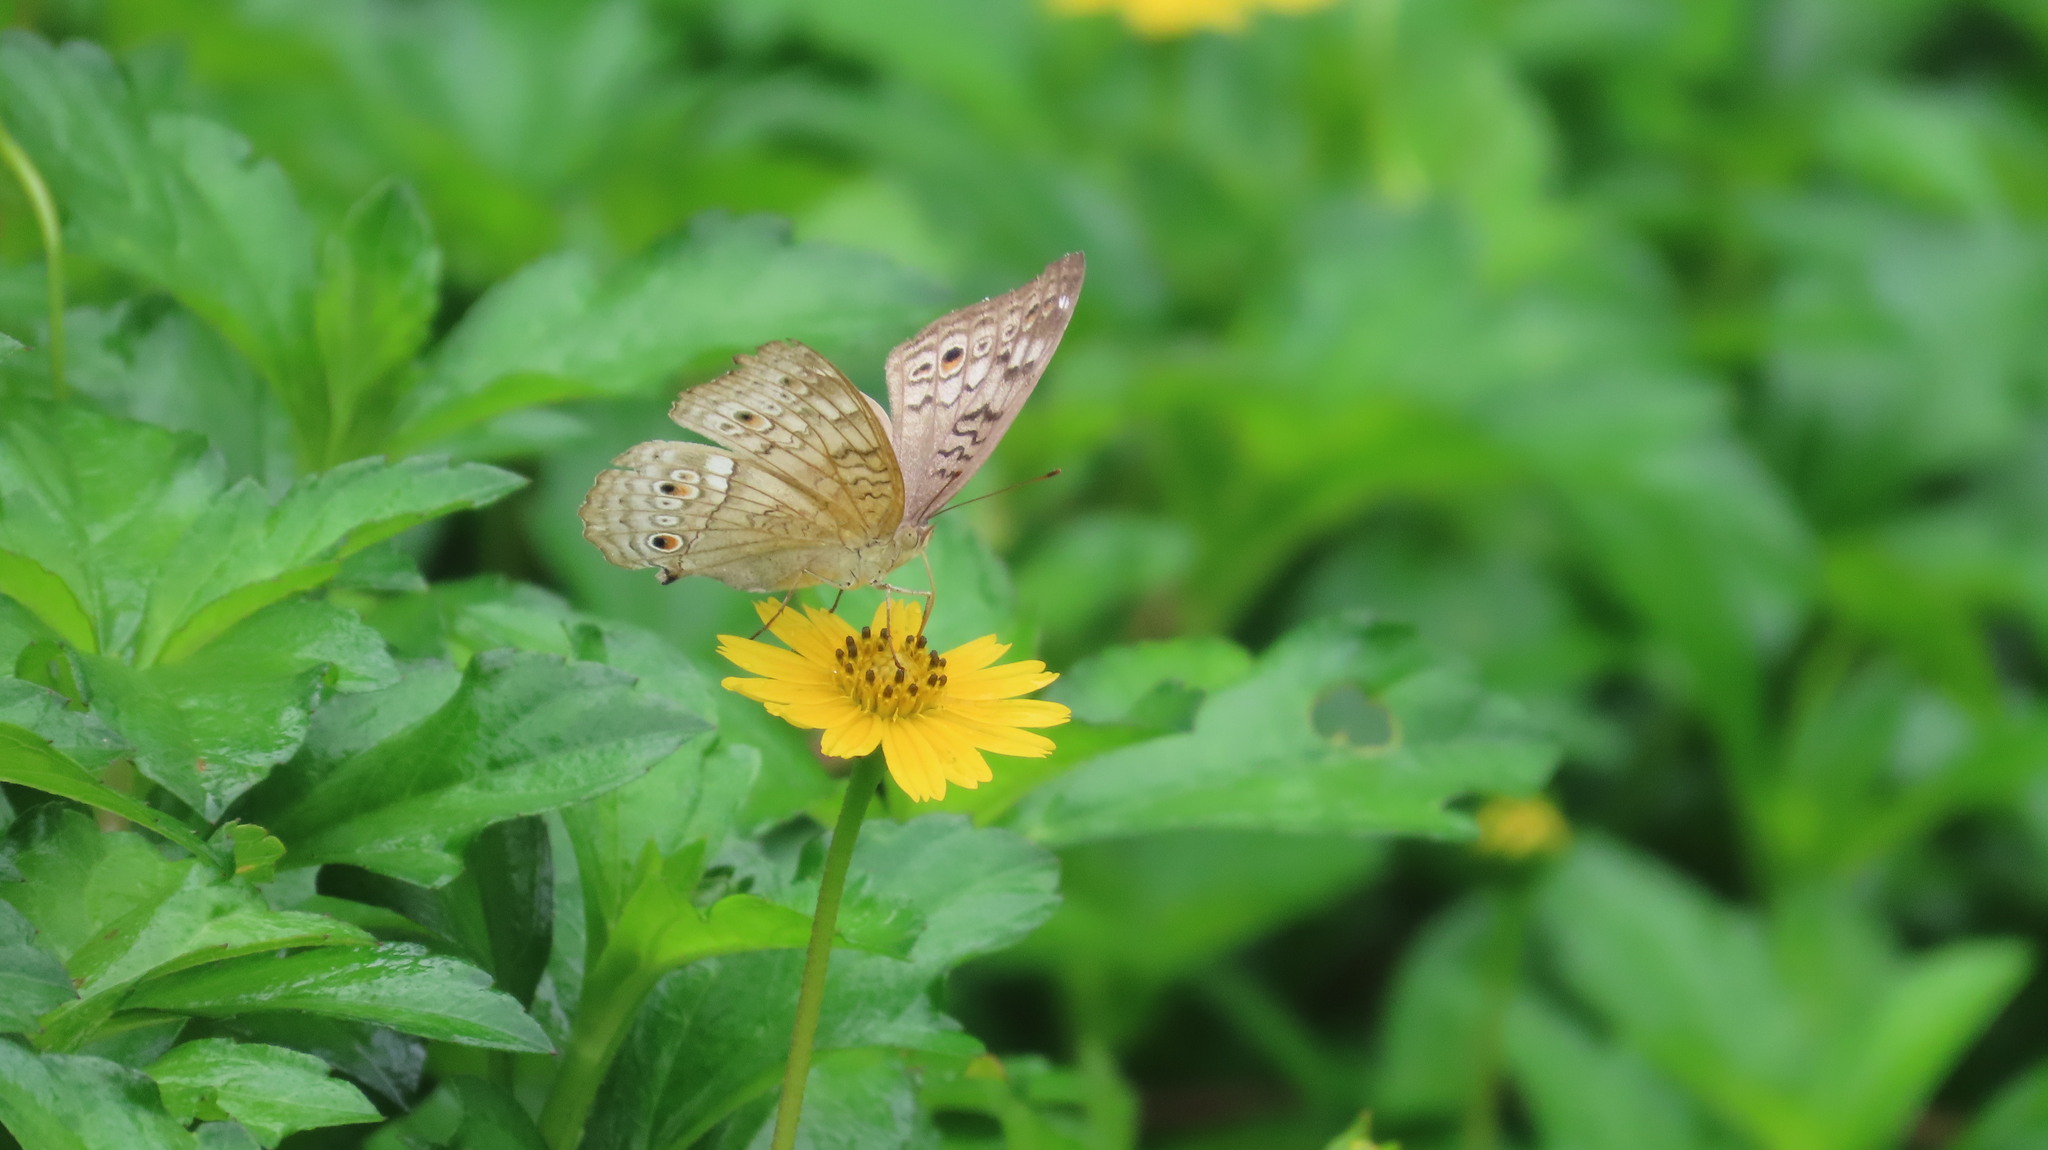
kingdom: Animalia
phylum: Arthropoda
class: Insecta
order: Lepidoptera
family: Nymphalidae
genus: Junonia
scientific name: Junonia atlites
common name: Grey pansy
